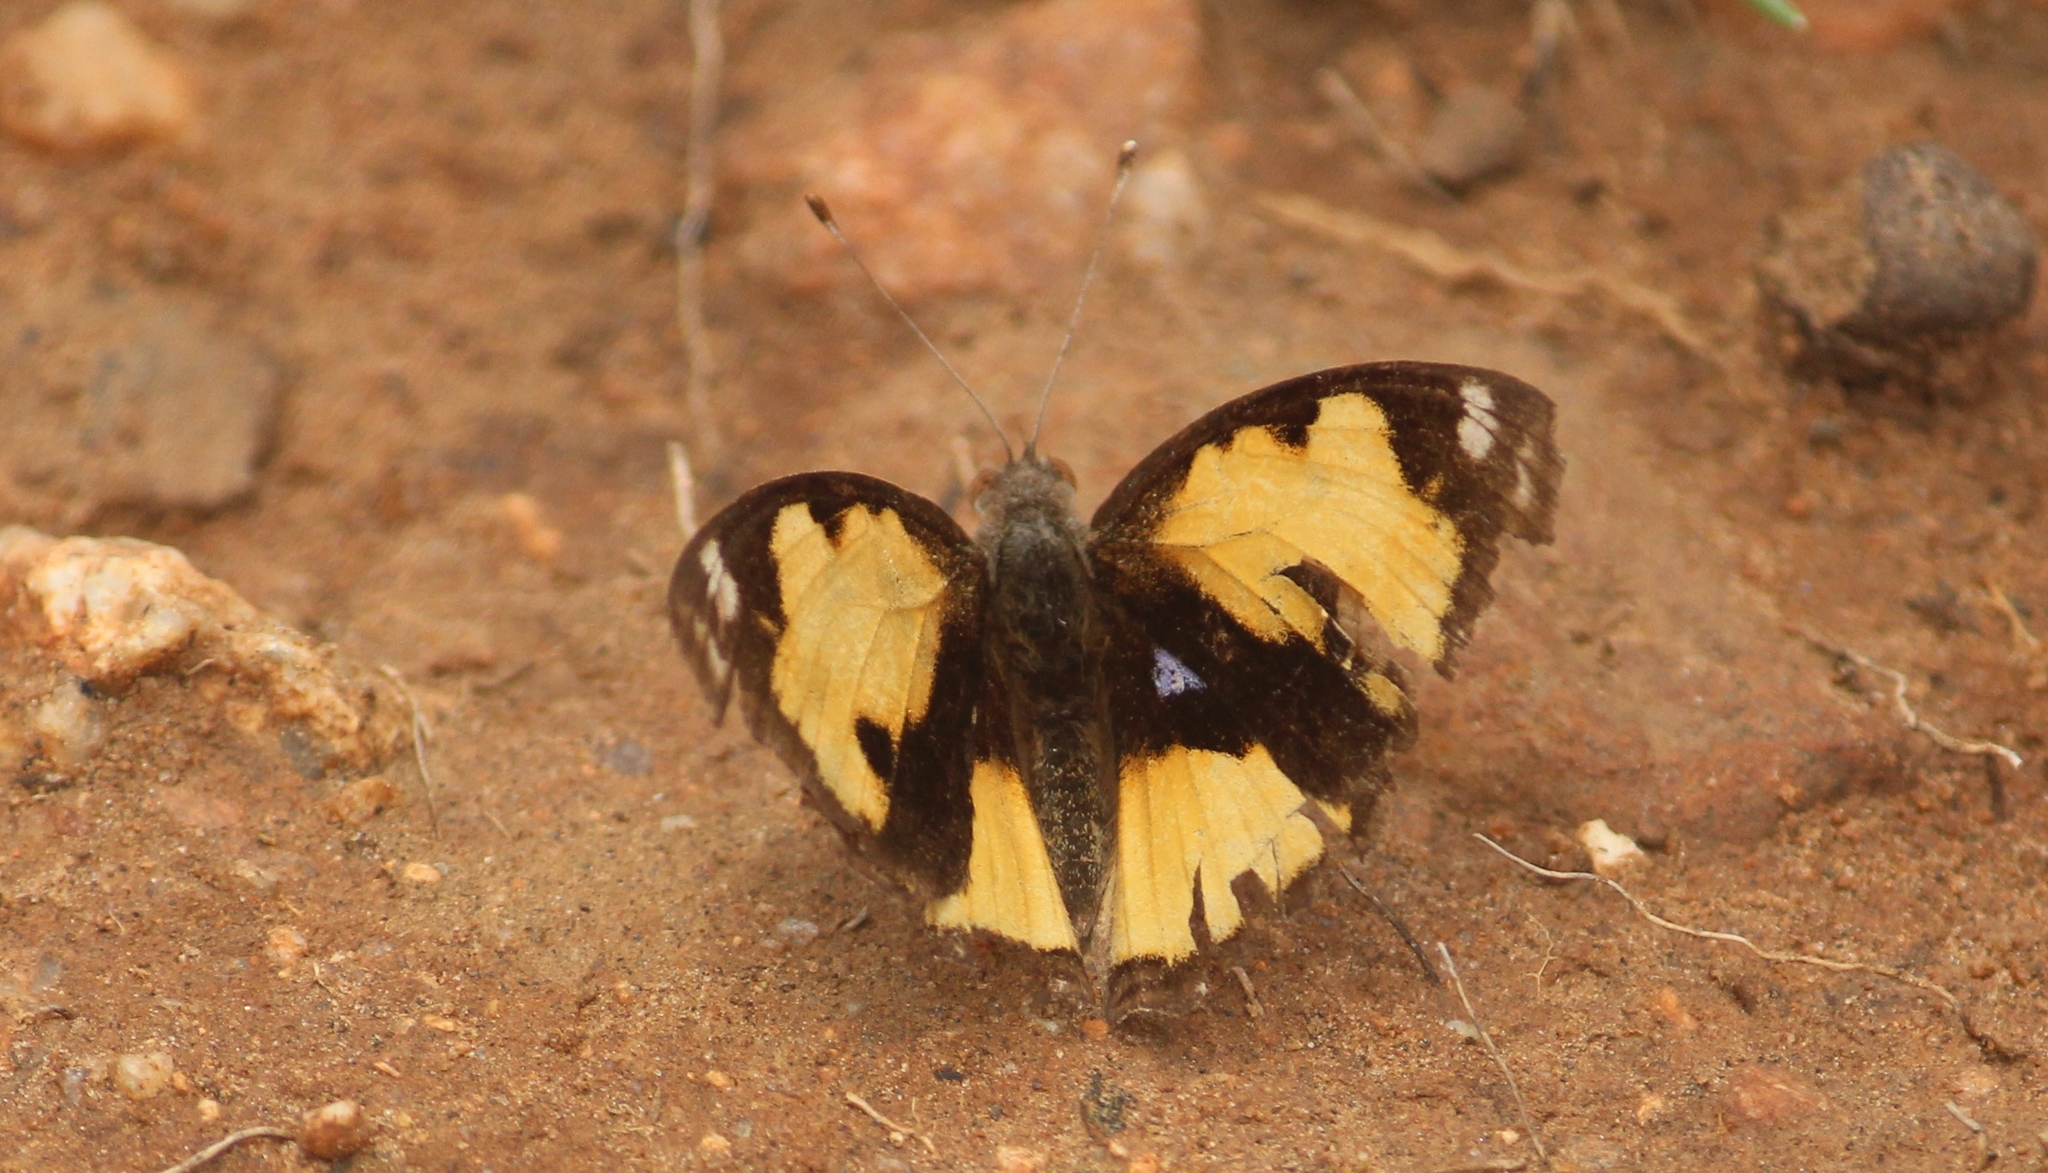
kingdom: Animalia
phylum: Arthropoda
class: Insecta
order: Lepidoptera
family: Nymphalidae
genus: Junonia
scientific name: Junonia hierta
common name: Yellow pansy
